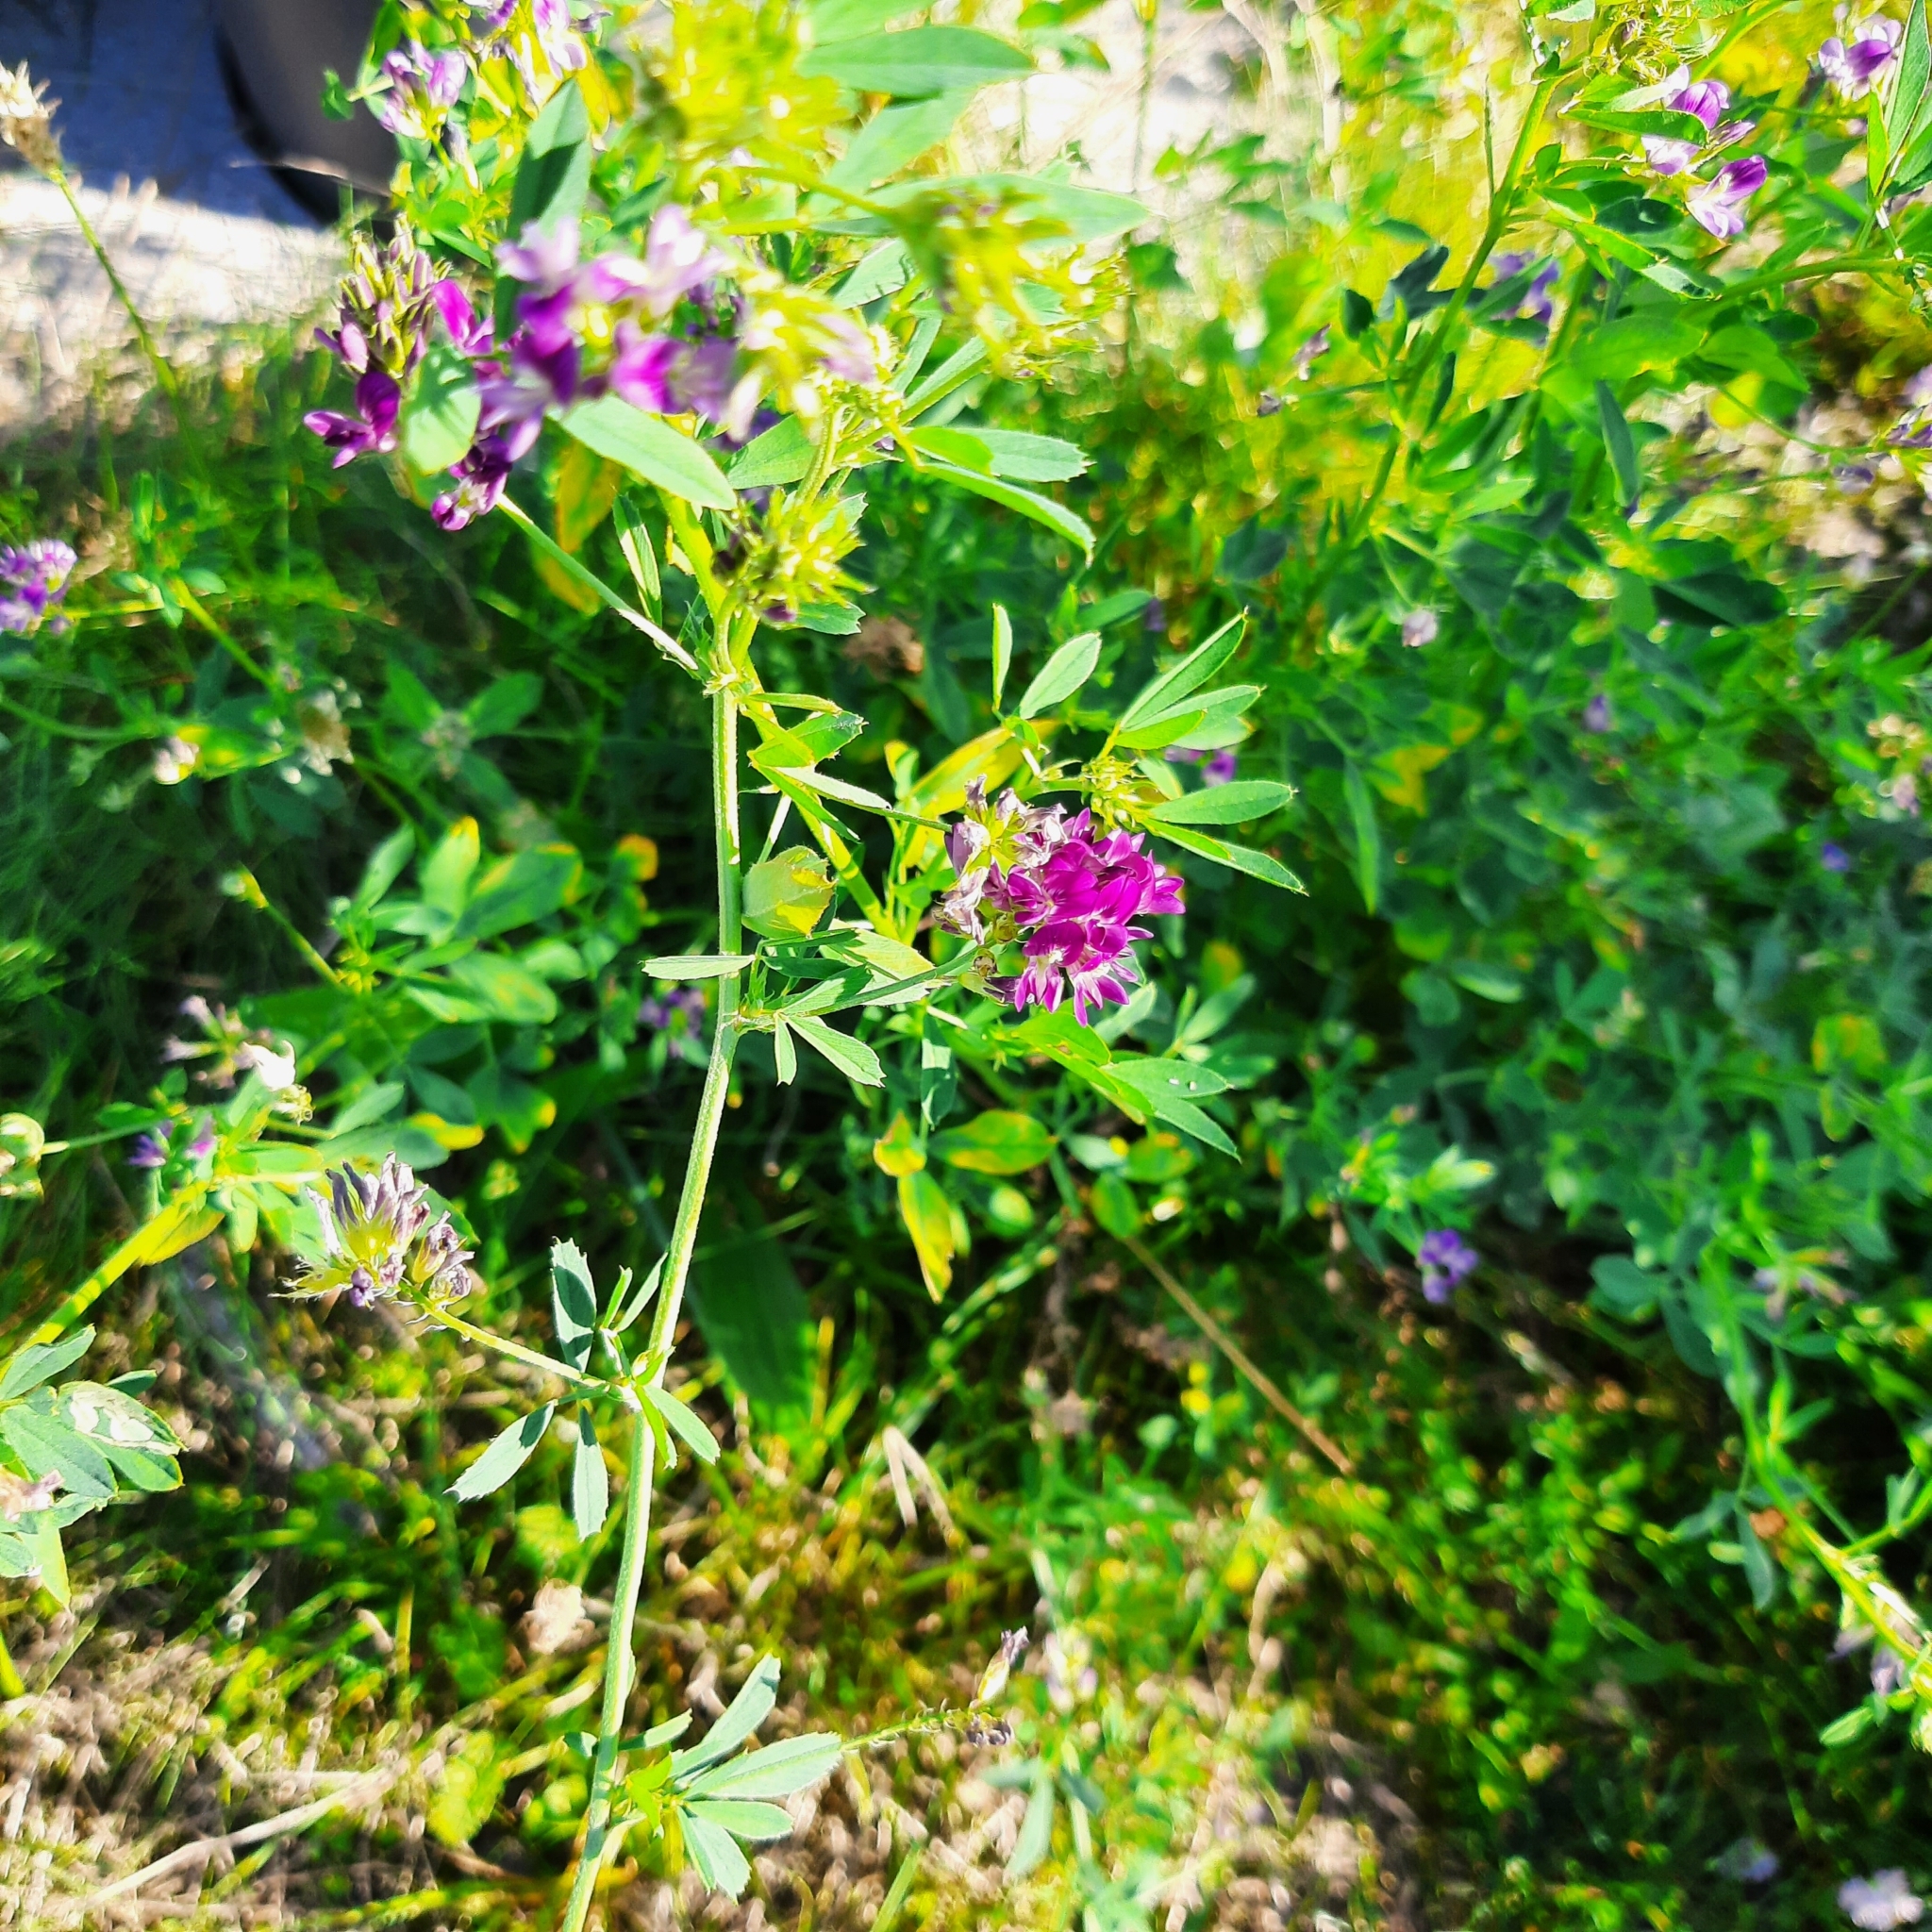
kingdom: Plantae
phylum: Tracheophyta
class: Magnoliopsida
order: Fabales
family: Fabaceae
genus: Medicago
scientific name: Medicago varia
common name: Sand lucerne
